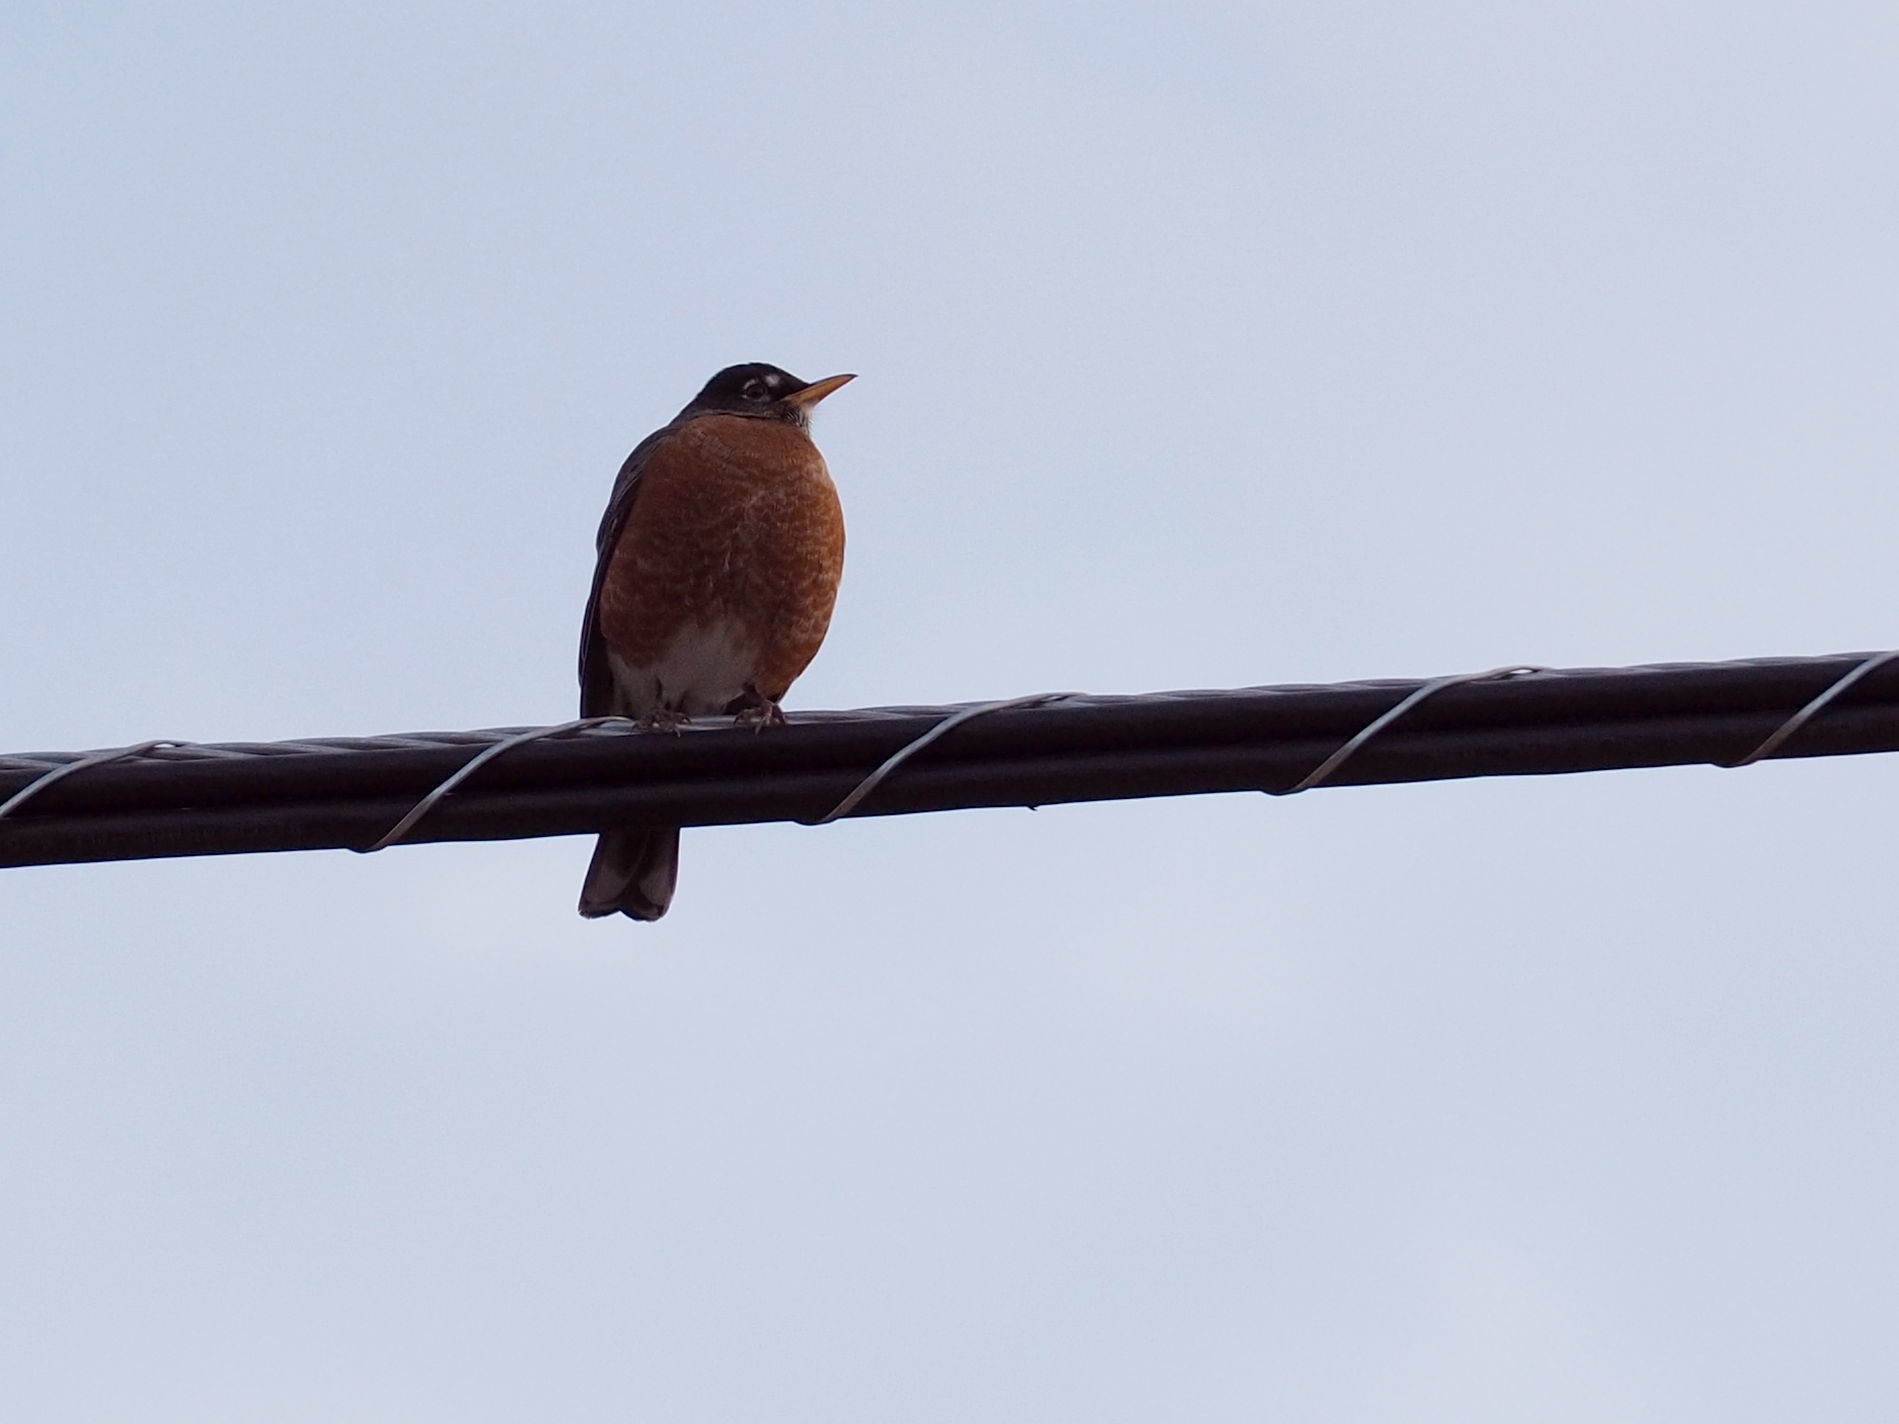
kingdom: Animalia
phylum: Chordata
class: Aves
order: Passeriformes
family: Turdidae
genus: Turdus
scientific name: Turdus migratorius
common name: American robin
